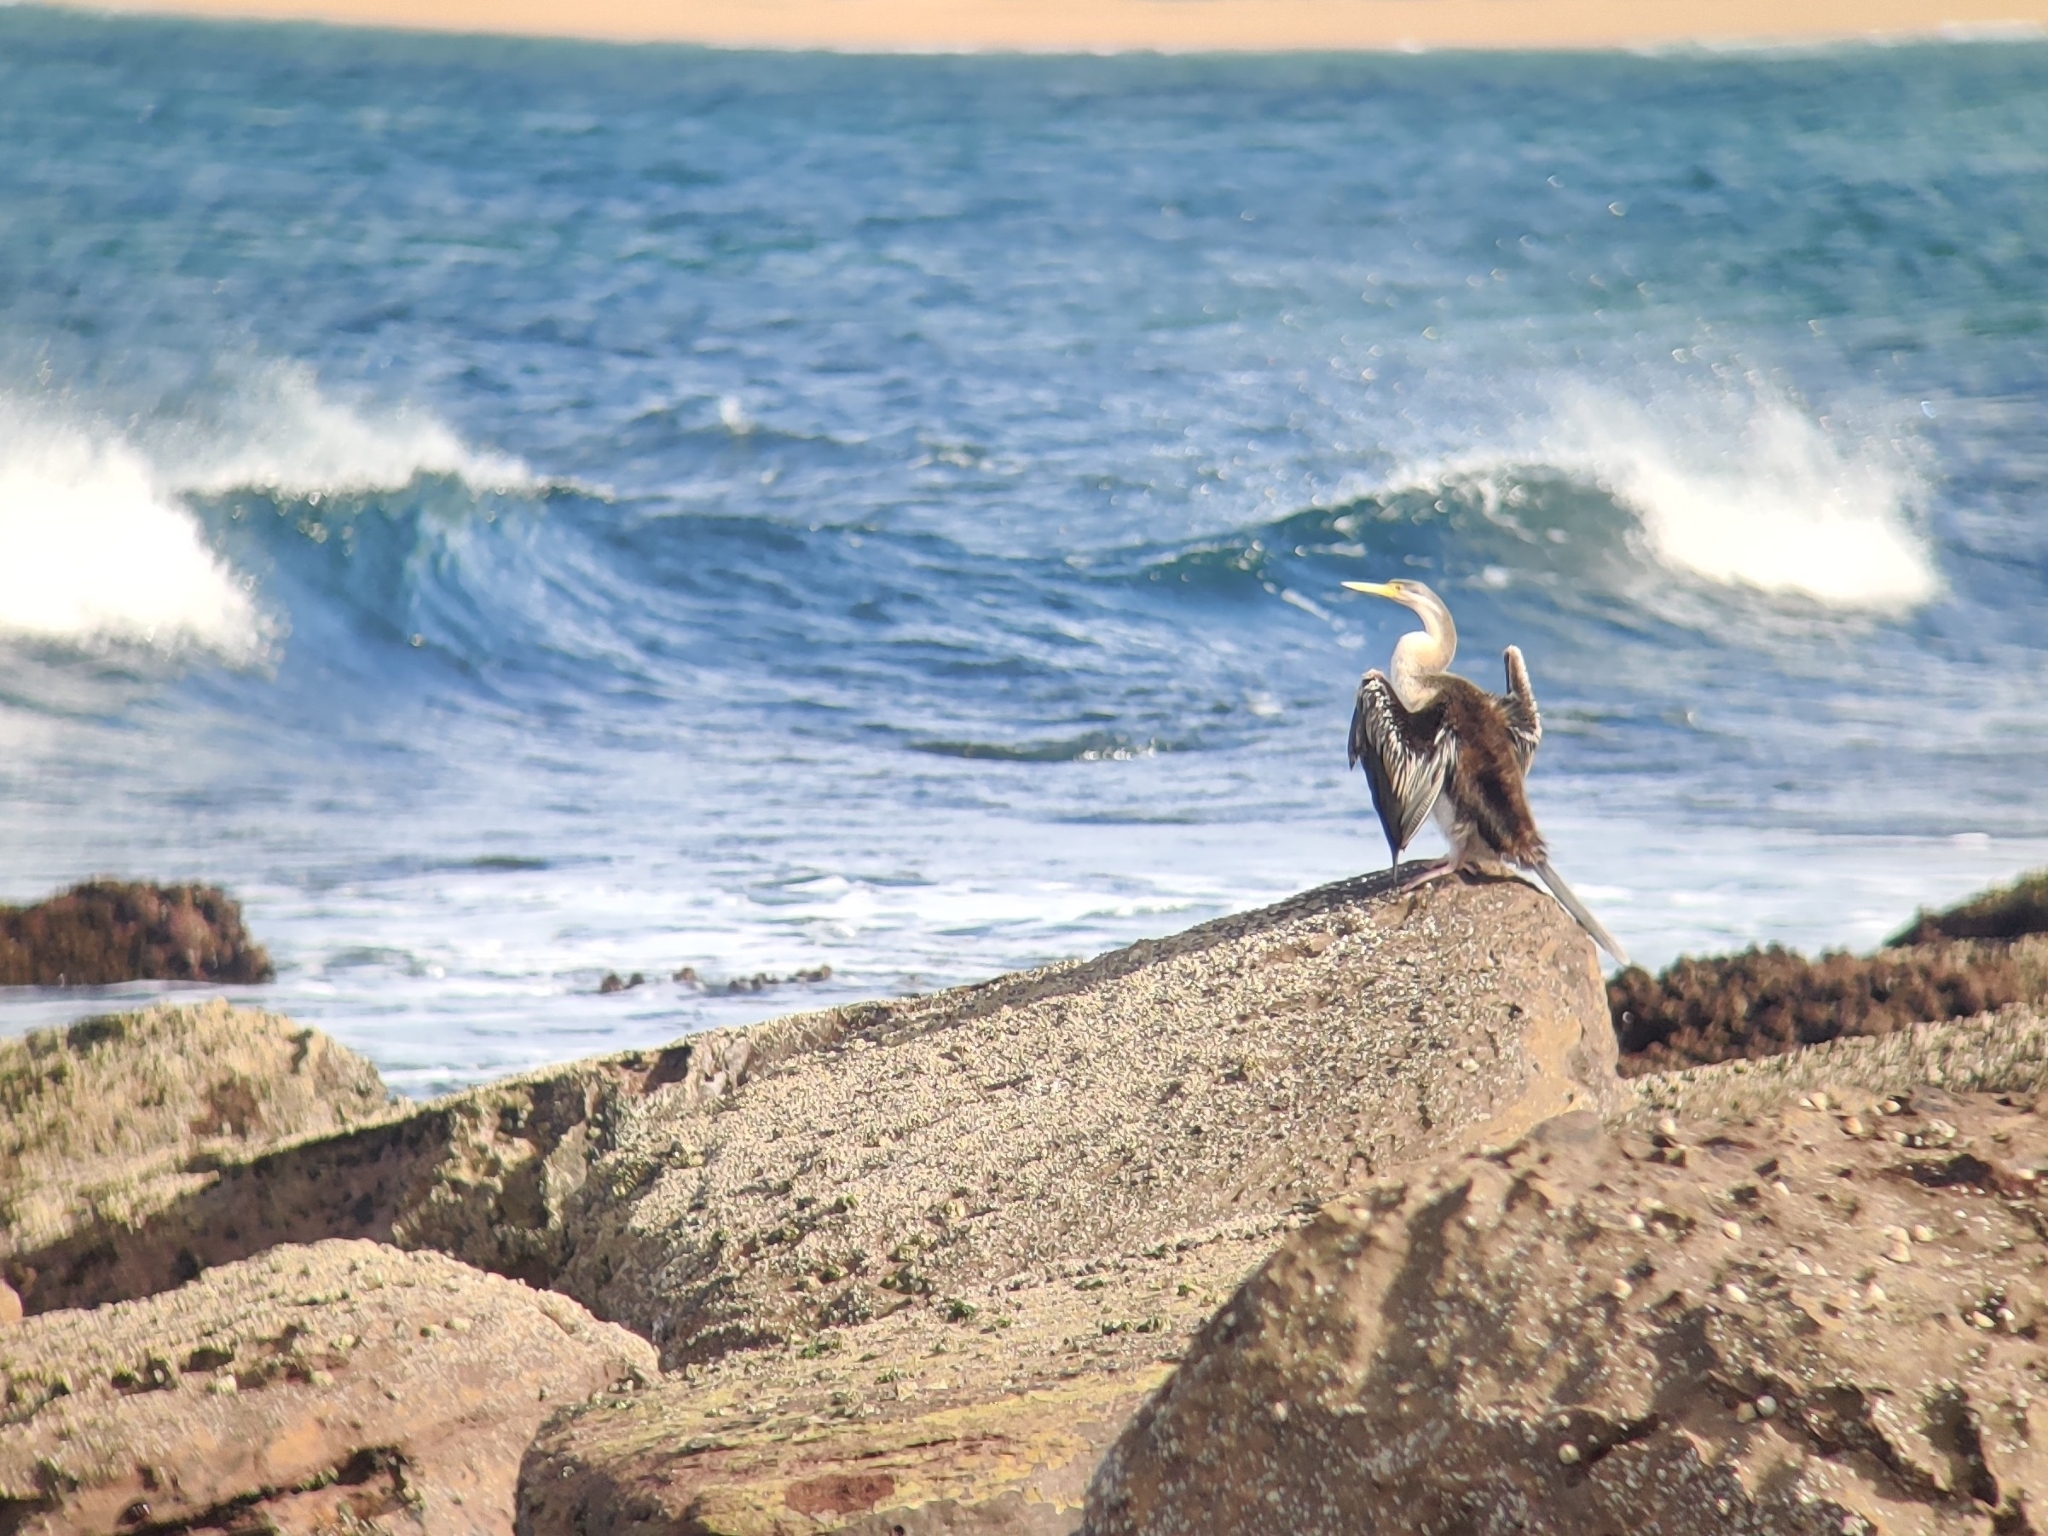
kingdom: Animalia
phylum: Chordata
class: Aves
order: Suliformes
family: Anhingidae
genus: Anhinga
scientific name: Anhinga novaehollandiae
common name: Australasian darter
